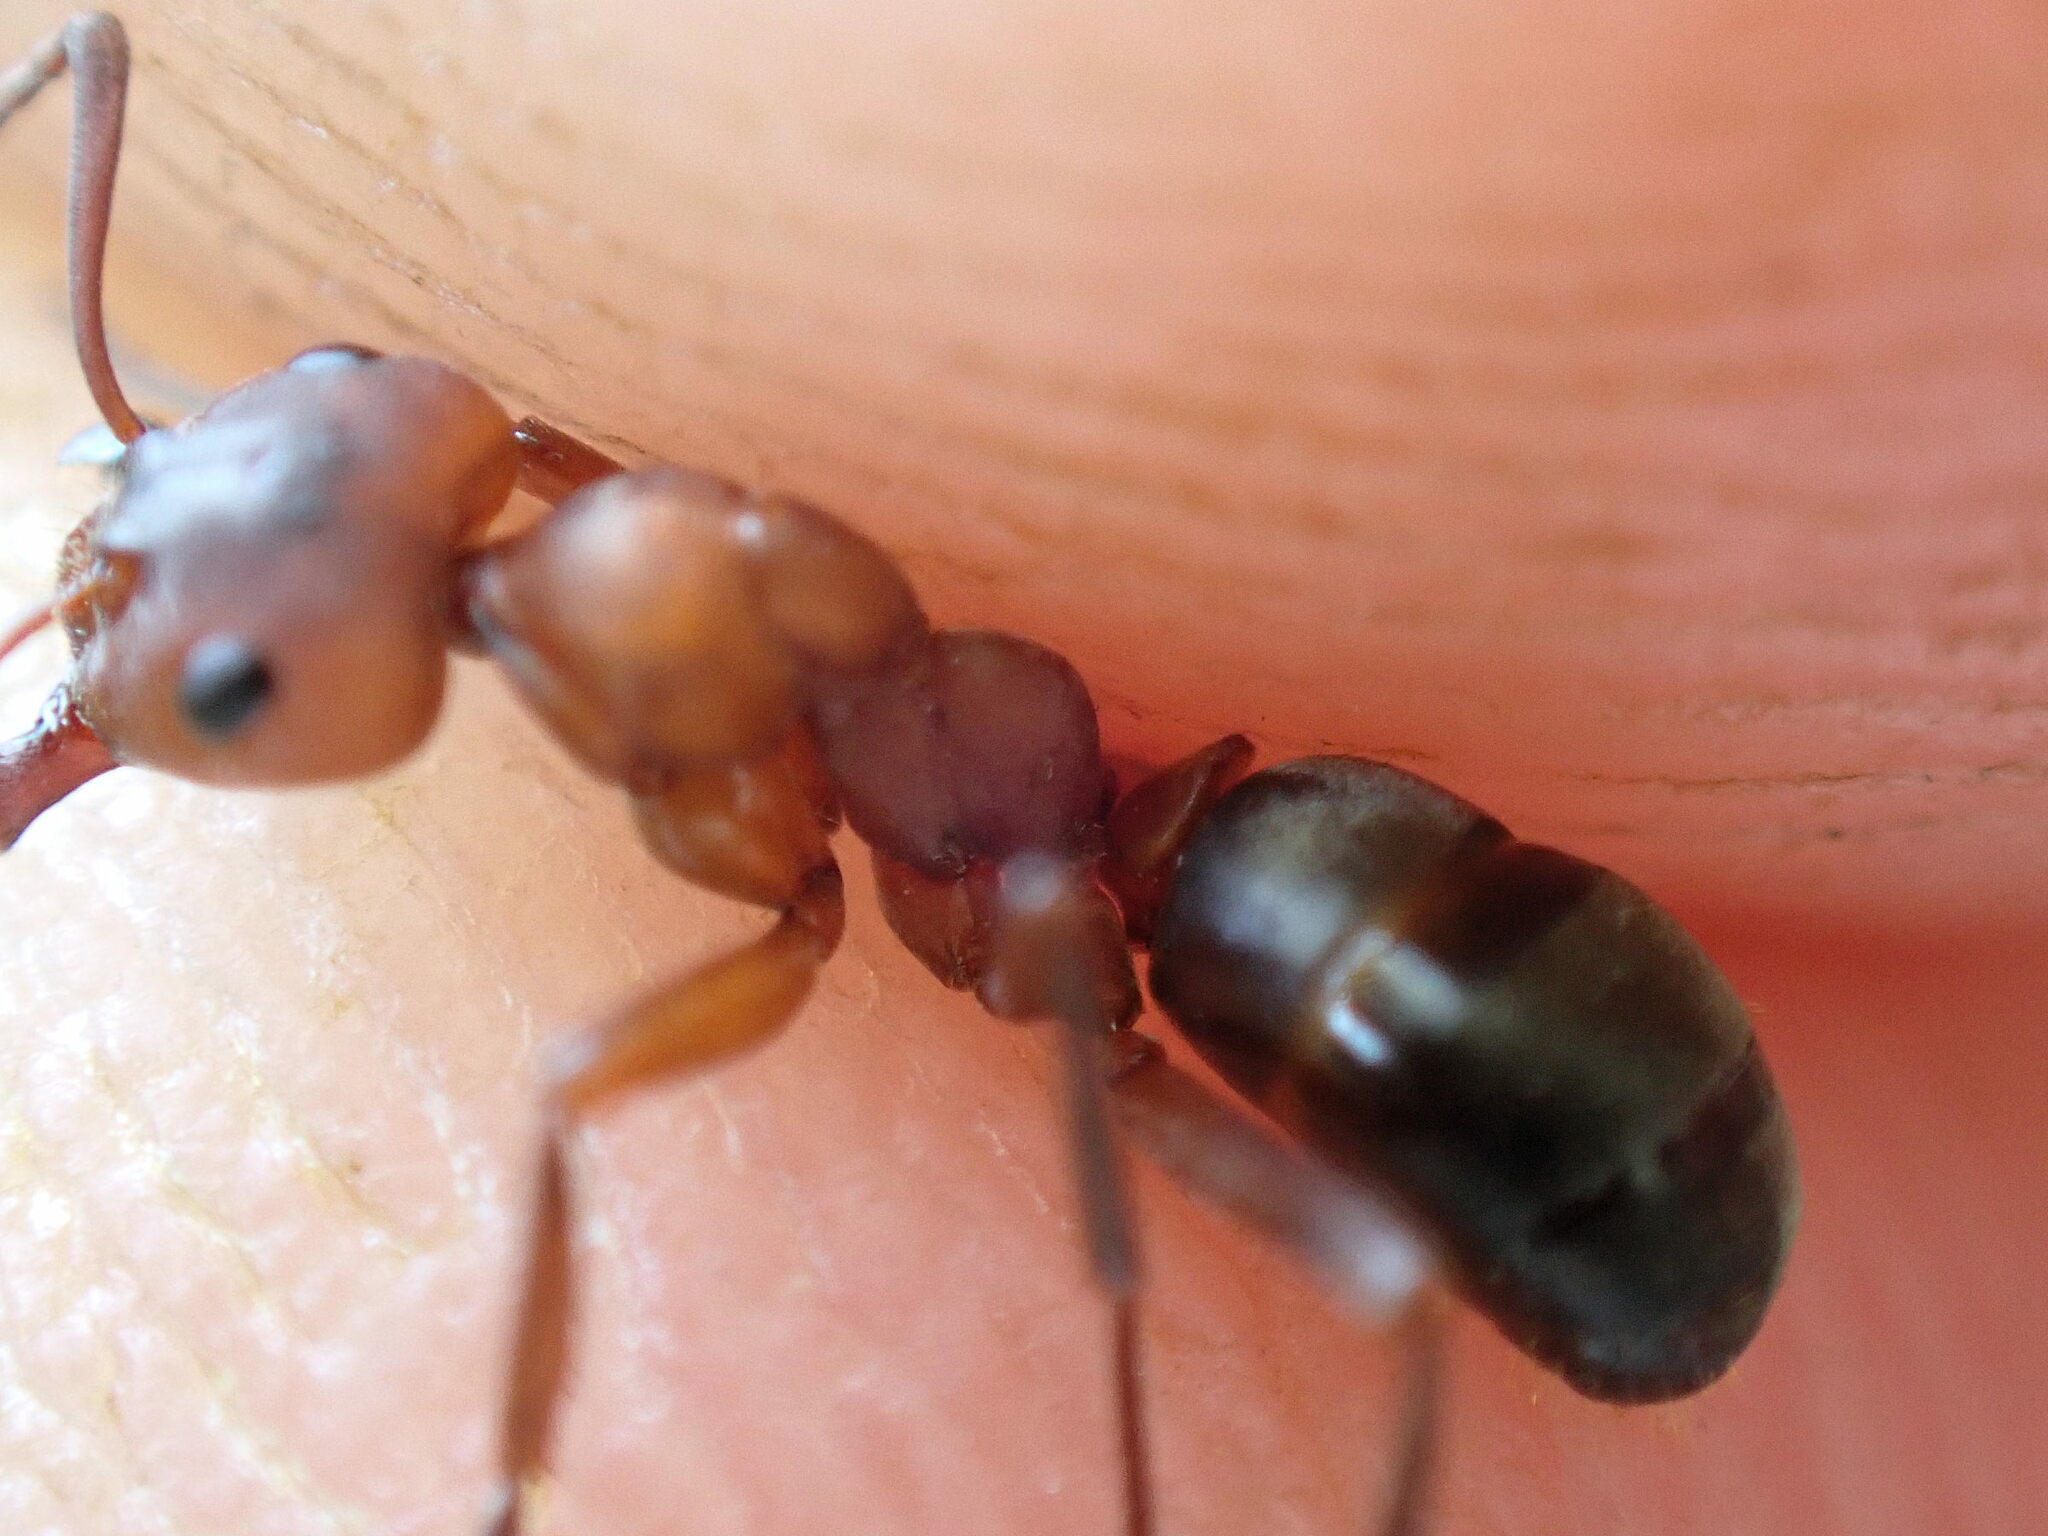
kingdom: Animalia
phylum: Arthropoda
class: Insecta
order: Hymenoptera
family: Formicidae
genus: Formica
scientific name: Formica sanguinea
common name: Blood-red ant
